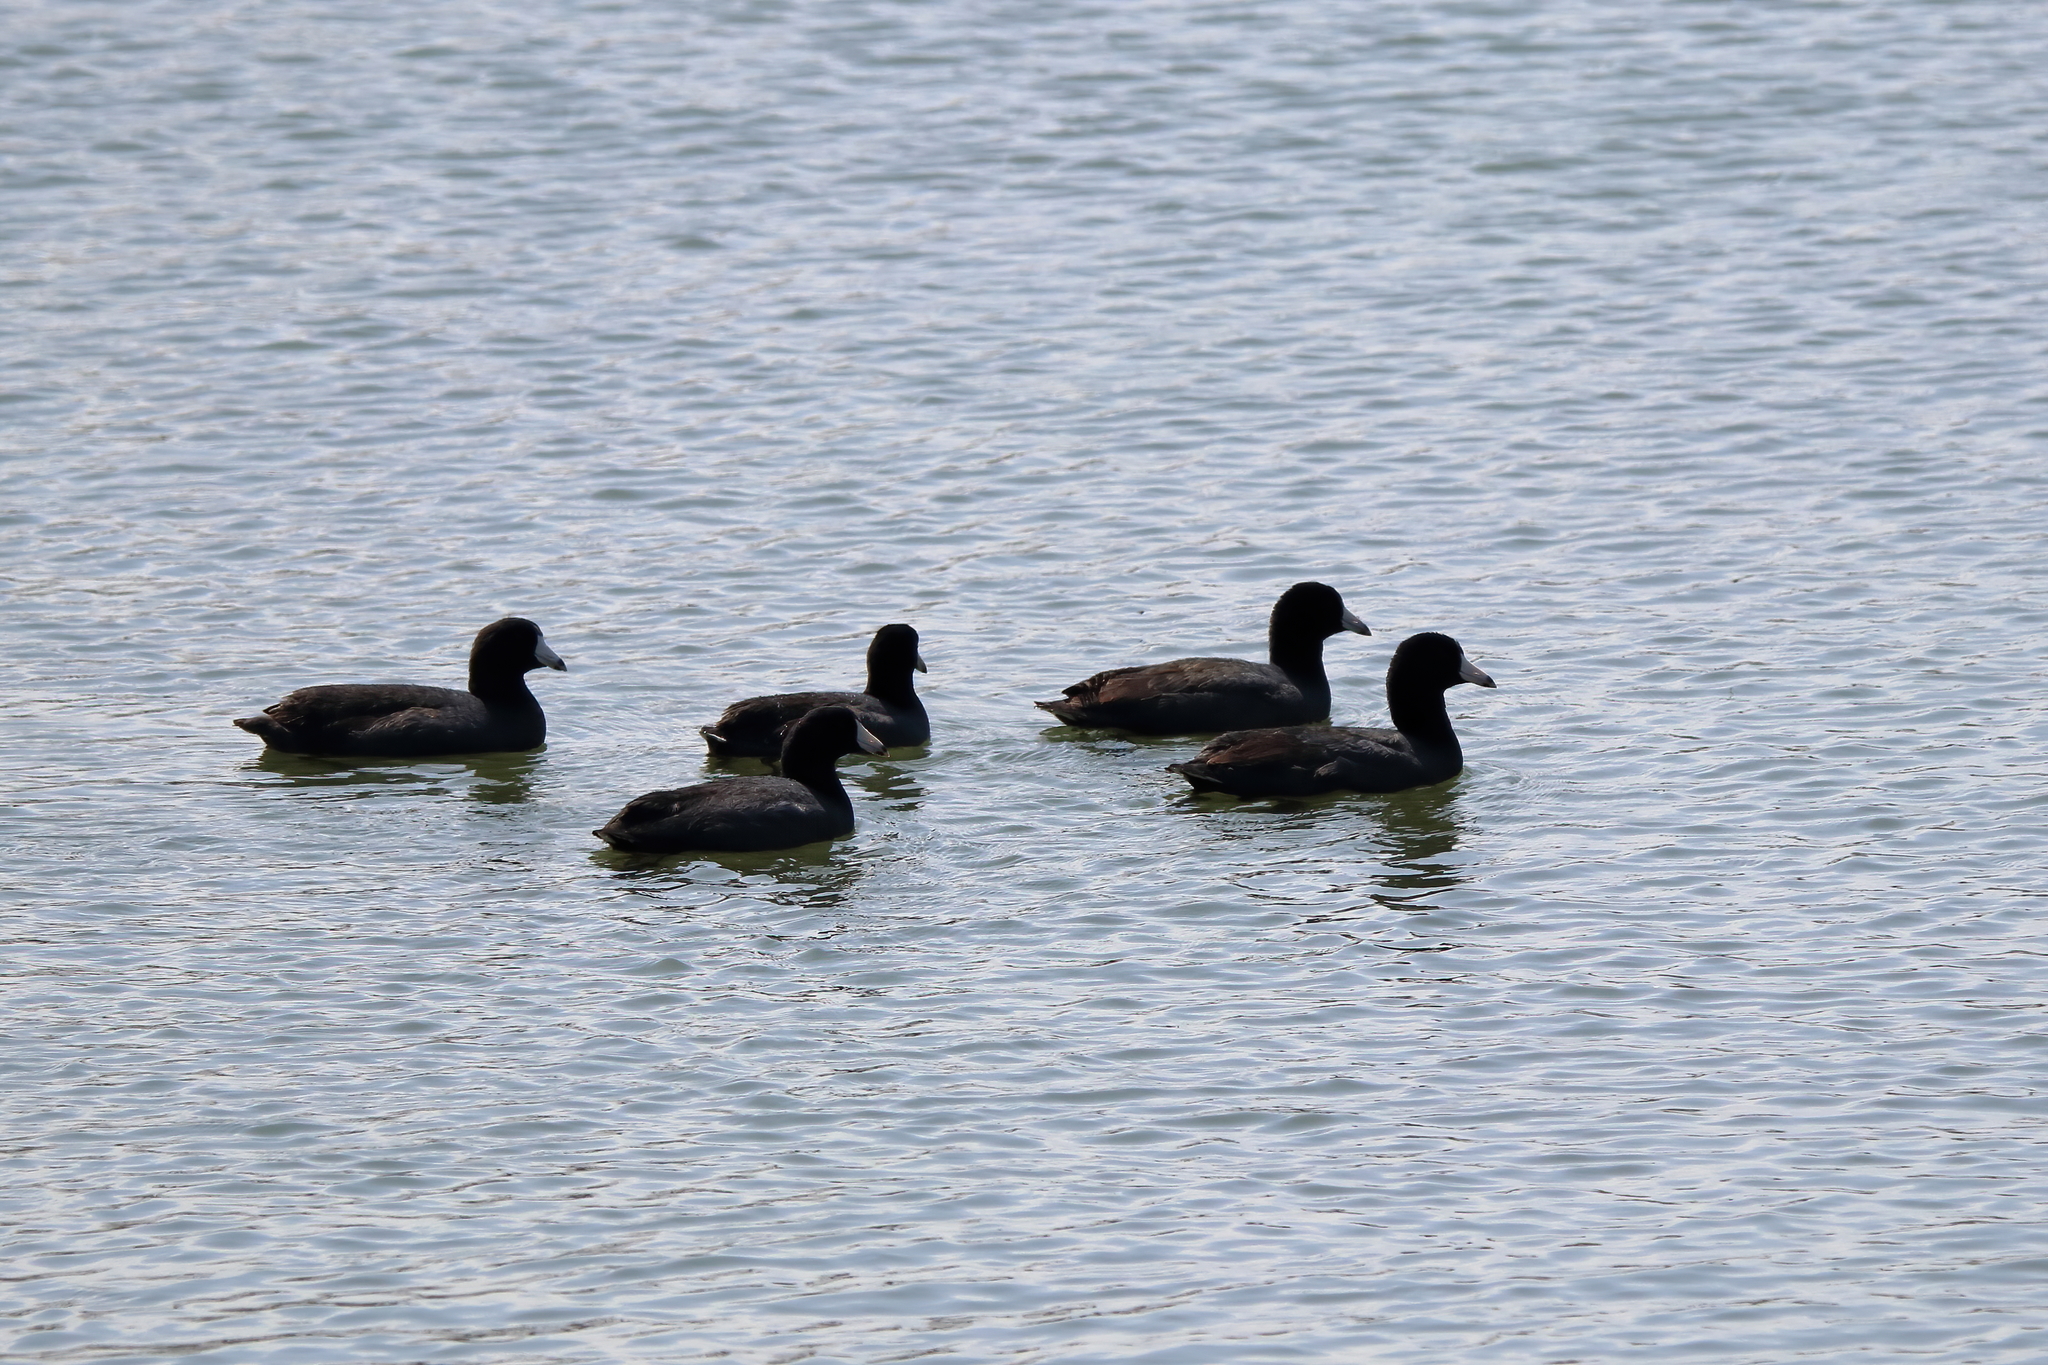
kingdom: Animalia
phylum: Chordata
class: Aves
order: Gruiformes
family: Rallidae
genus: Fulica
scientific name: Fulica americana
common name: American coot
